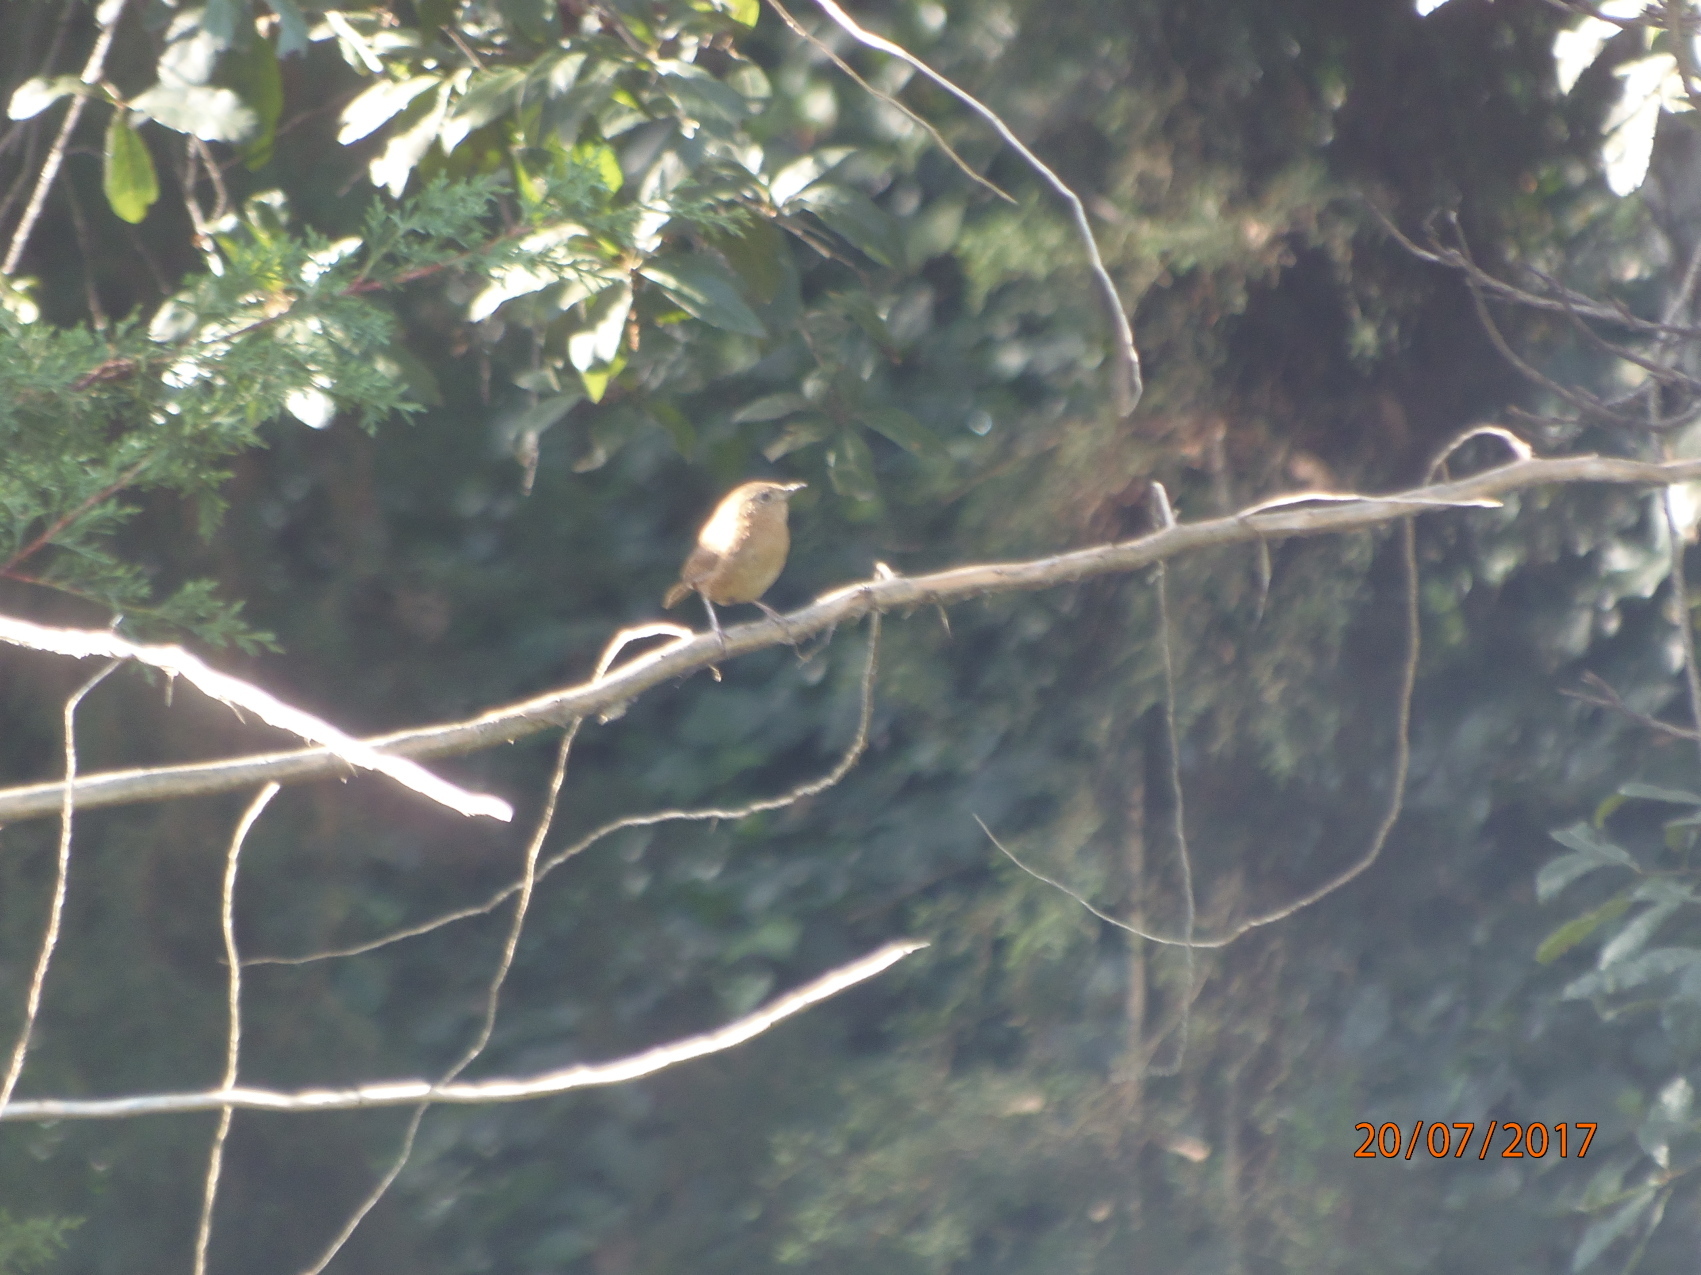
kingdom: Animalia
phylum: Chordata
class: Aves
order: Passeriformes
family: Troglodytidae
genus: Troglodytes
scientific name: Troglodytes aedon
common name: House wren
